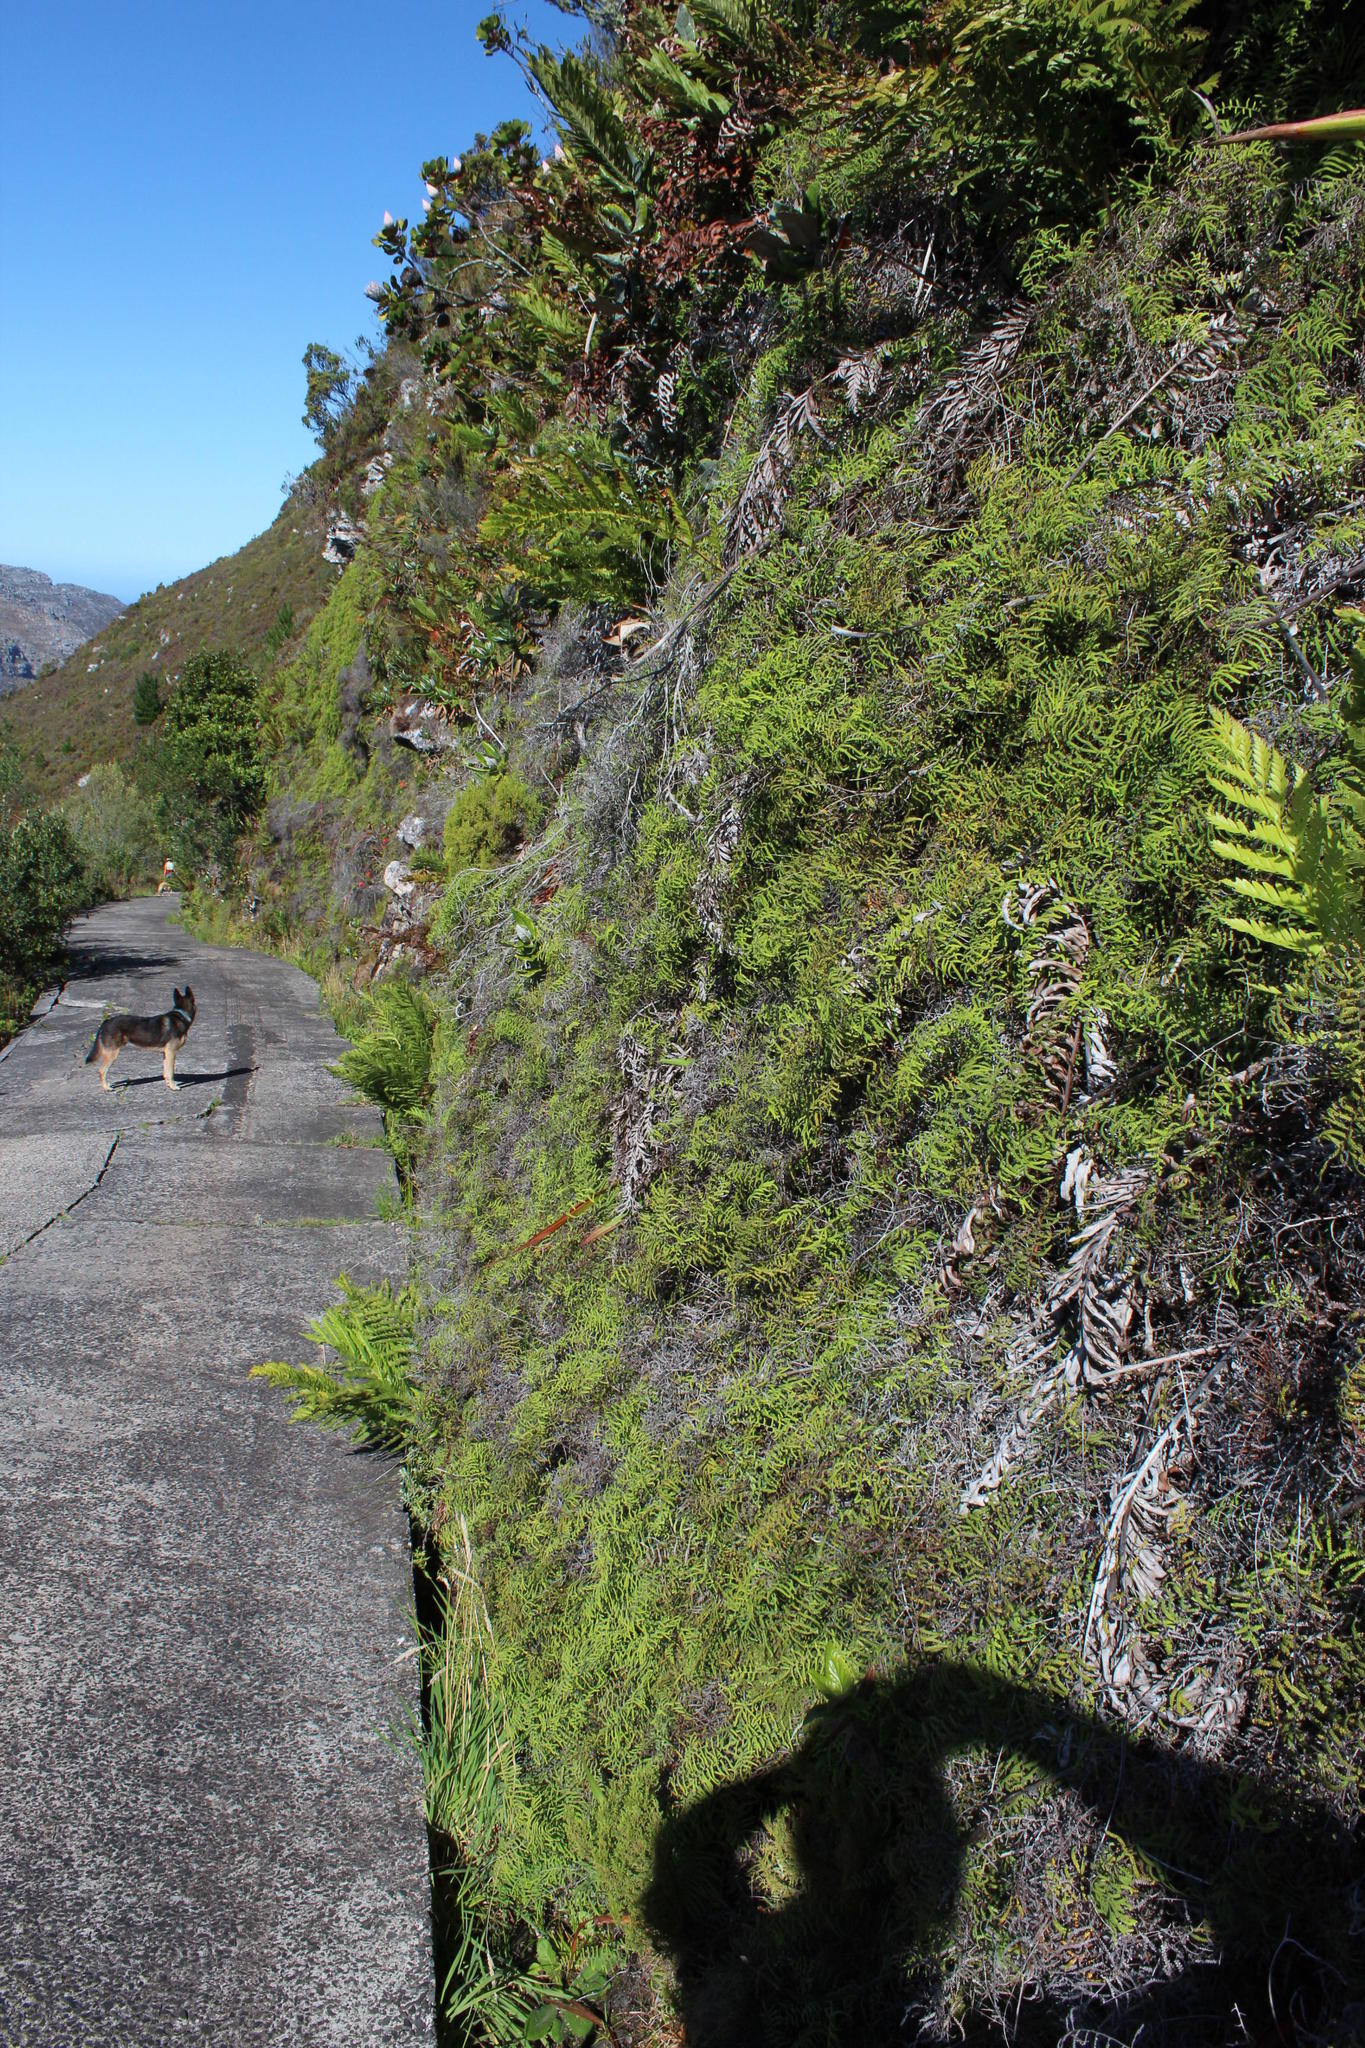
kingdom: Plantae
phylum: Tracheophyta
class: Polypodiopsida
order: Gleicheniales
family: Gleicheniaceae
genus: Gleichenia
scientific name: Gleichenia polypodioides
